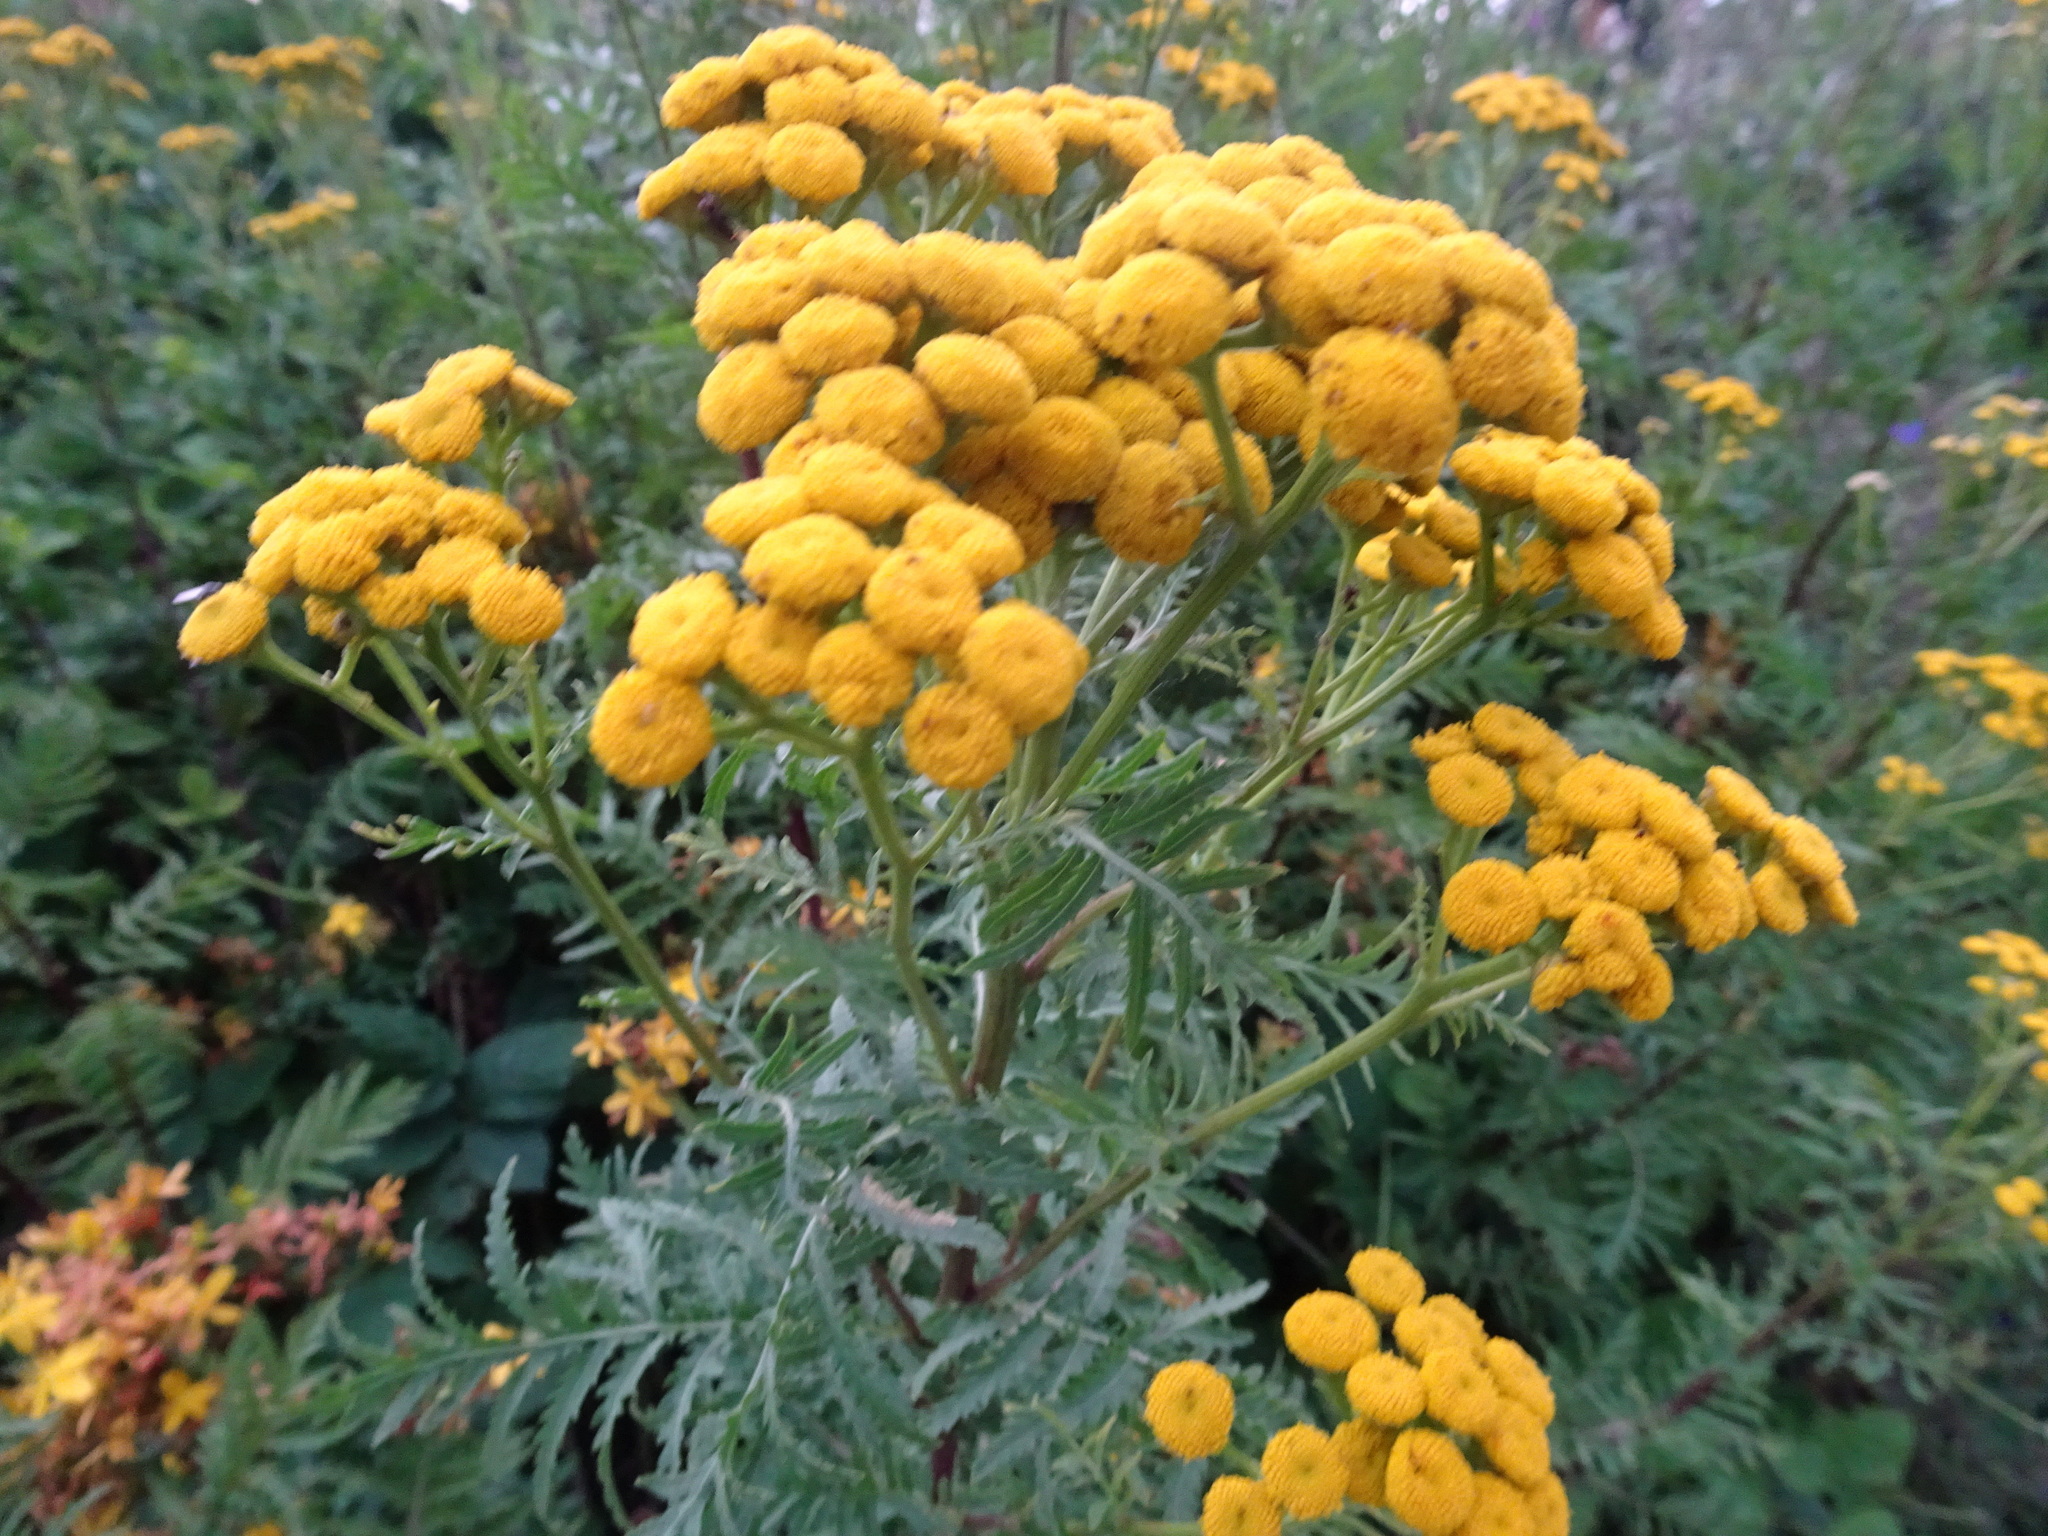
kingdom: Plantae
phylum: Tracheophyta
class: Magnoliopsida
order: Asterales
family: Asteraceae
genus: Tanacetum
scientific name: Tanacetum vulgare
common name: Common tansy
